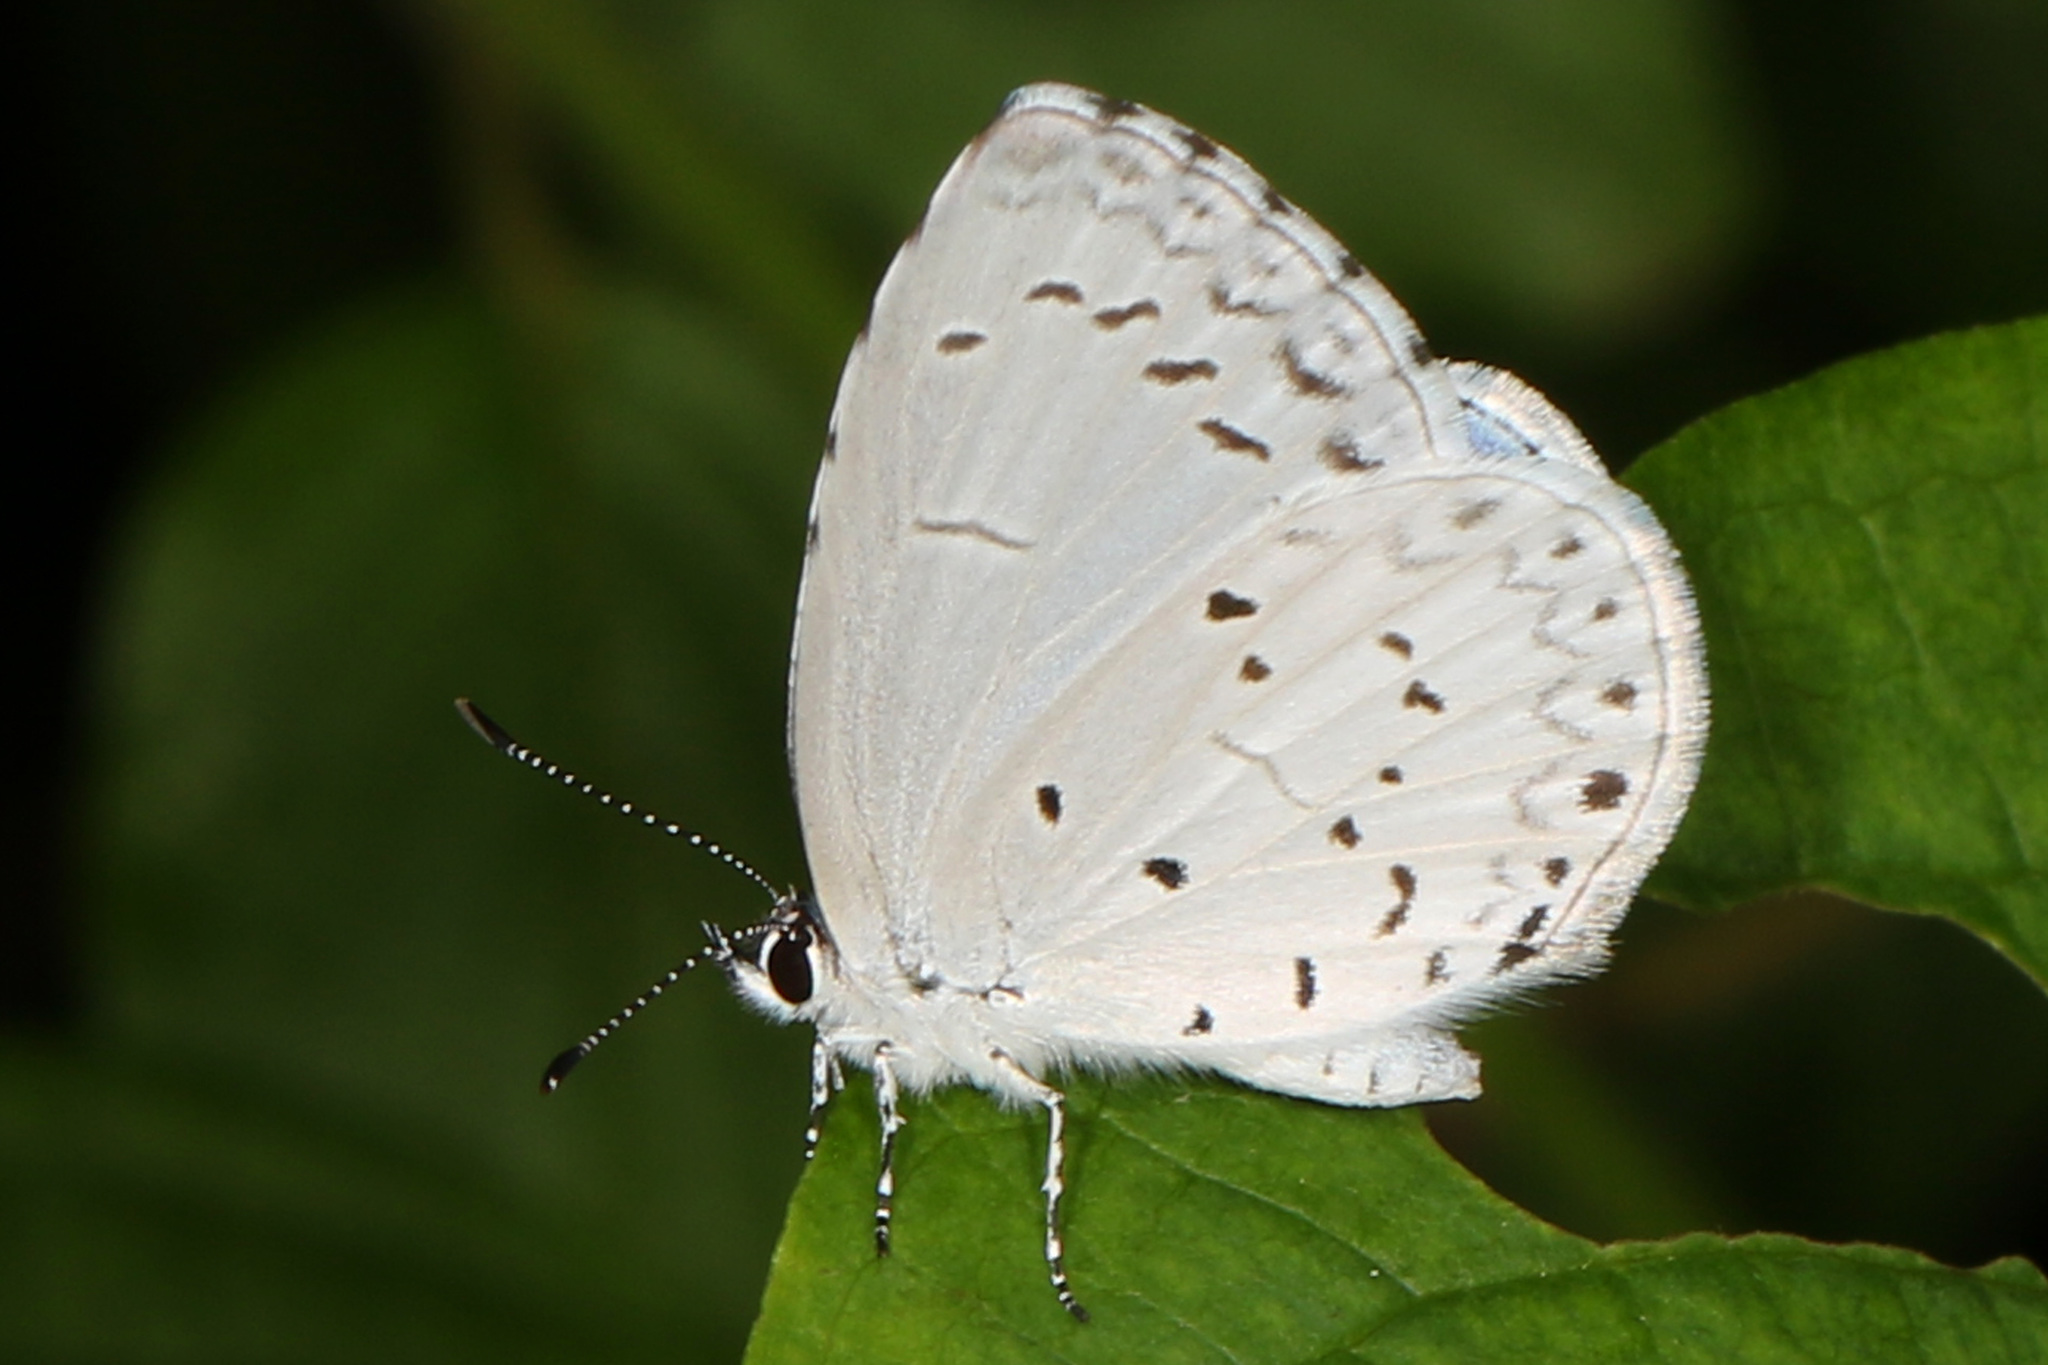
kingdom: Animalia
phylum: Arthropoda
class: Insecta
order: Lepidoptera
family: Lycaenidae
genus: Cyaniris
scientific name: Cyaniris neglecta
